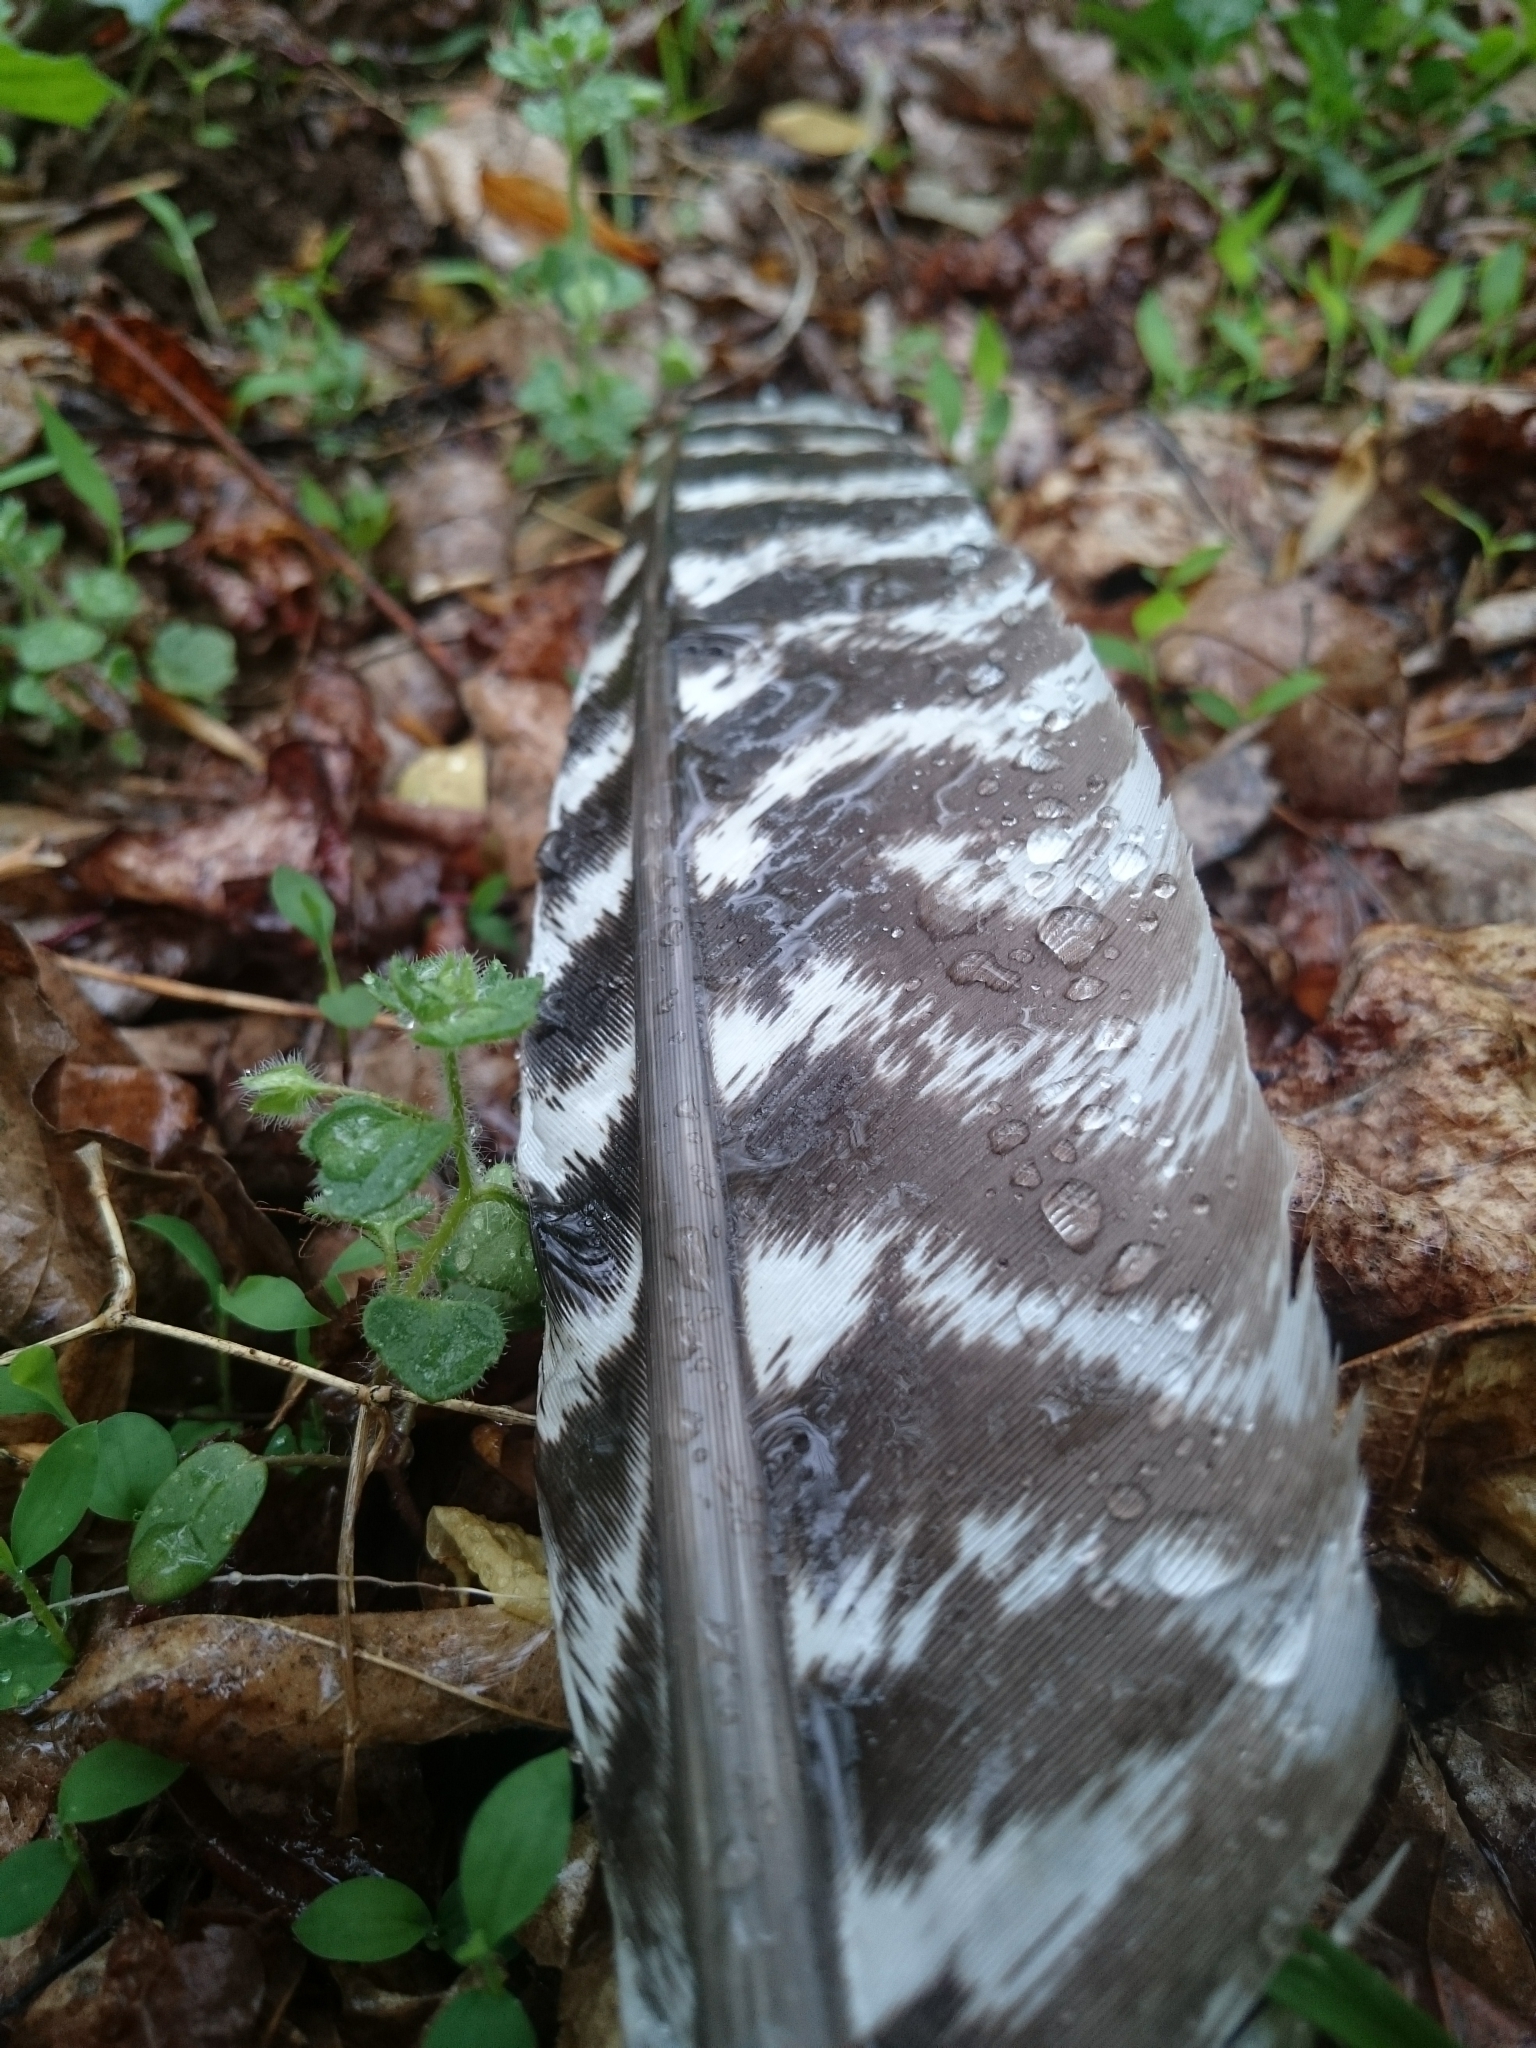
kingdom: Animalia
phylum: Chordata
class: Aves
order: Galliformes
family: Phasianidae
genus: Meleagris
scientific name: Meleagris gallopavo
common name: Wild turkey
